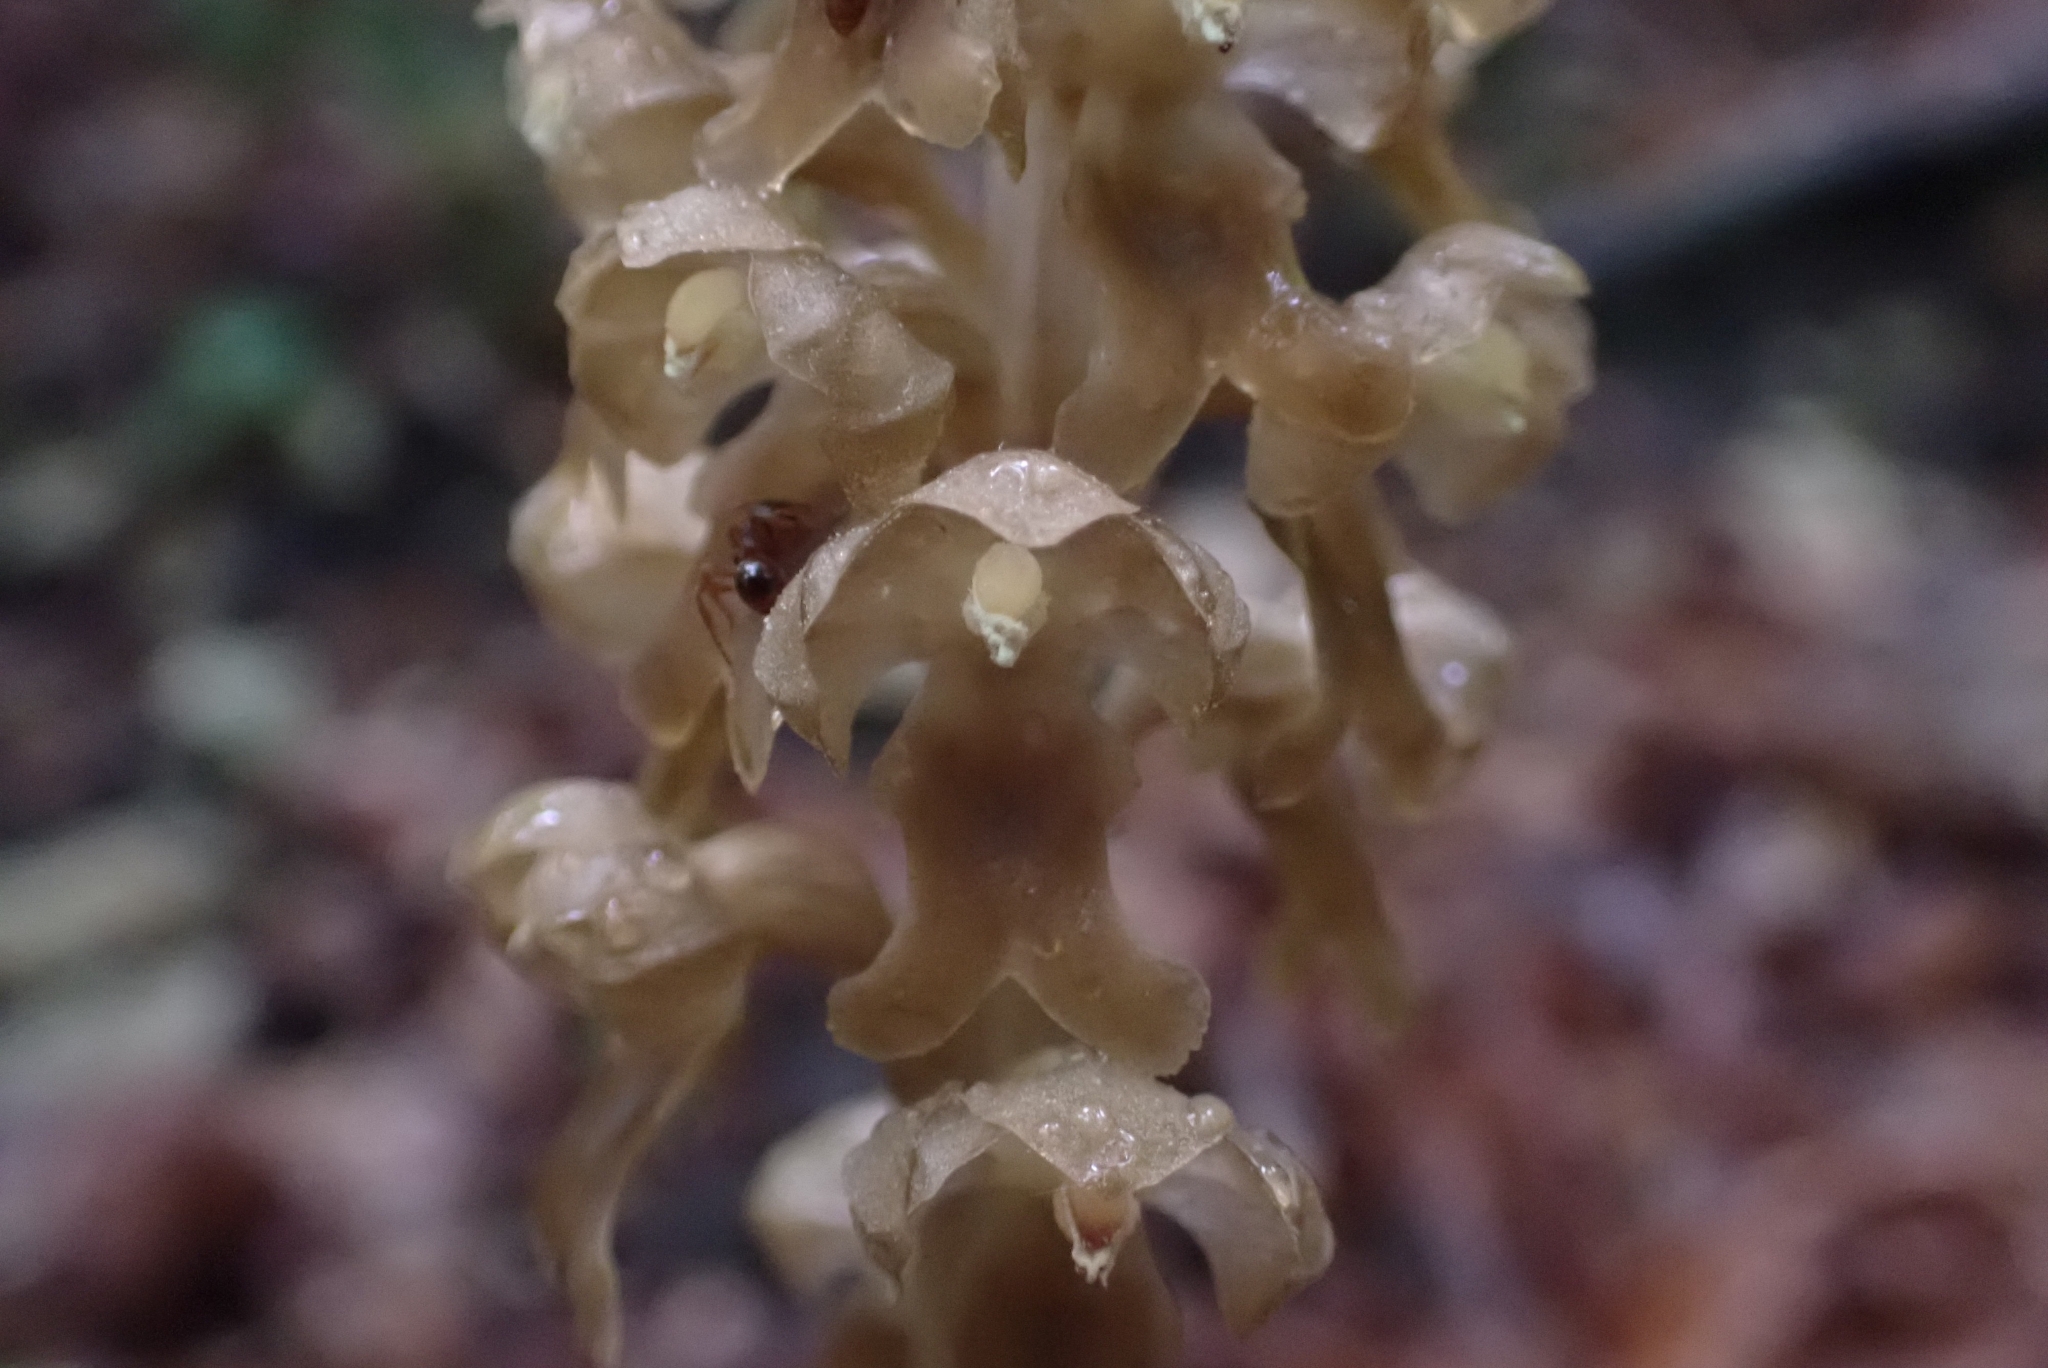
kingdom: Plantae
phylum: Tracheophyta
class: Liliopsida
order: Asparagales
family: Orchidaceae
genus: Neottia
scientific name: Neottia nidus-avis
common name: Bird's-nest orchid
